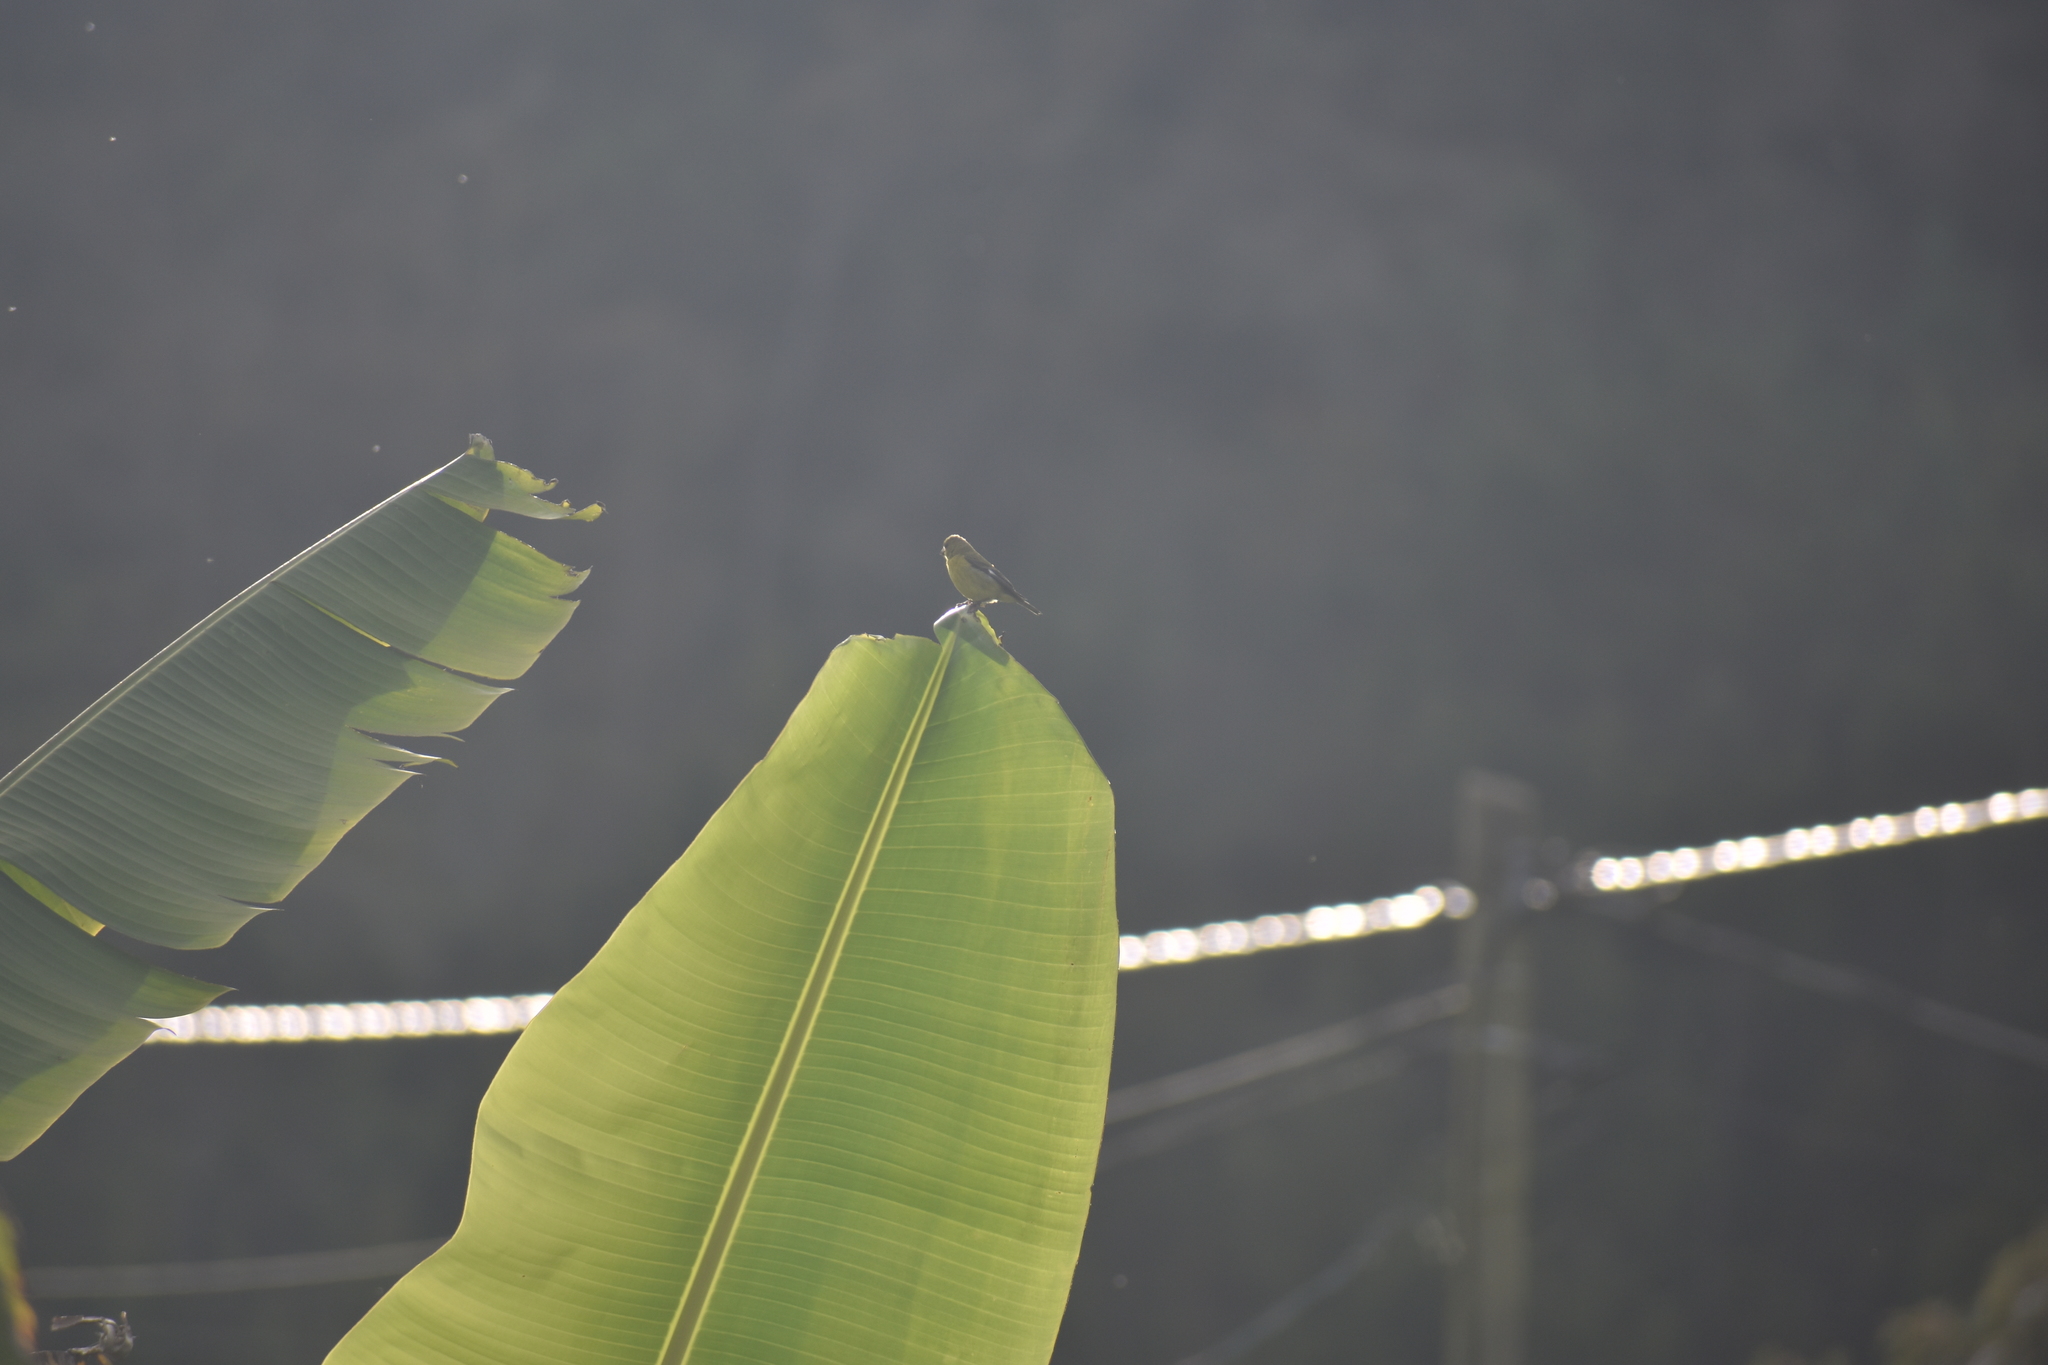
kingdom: Animalia
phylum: Chordata
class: Aves
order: Passeriformes
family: Fringillidae
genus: Spinus
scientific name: Spinus psaltria
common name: Lesser goldfinch
